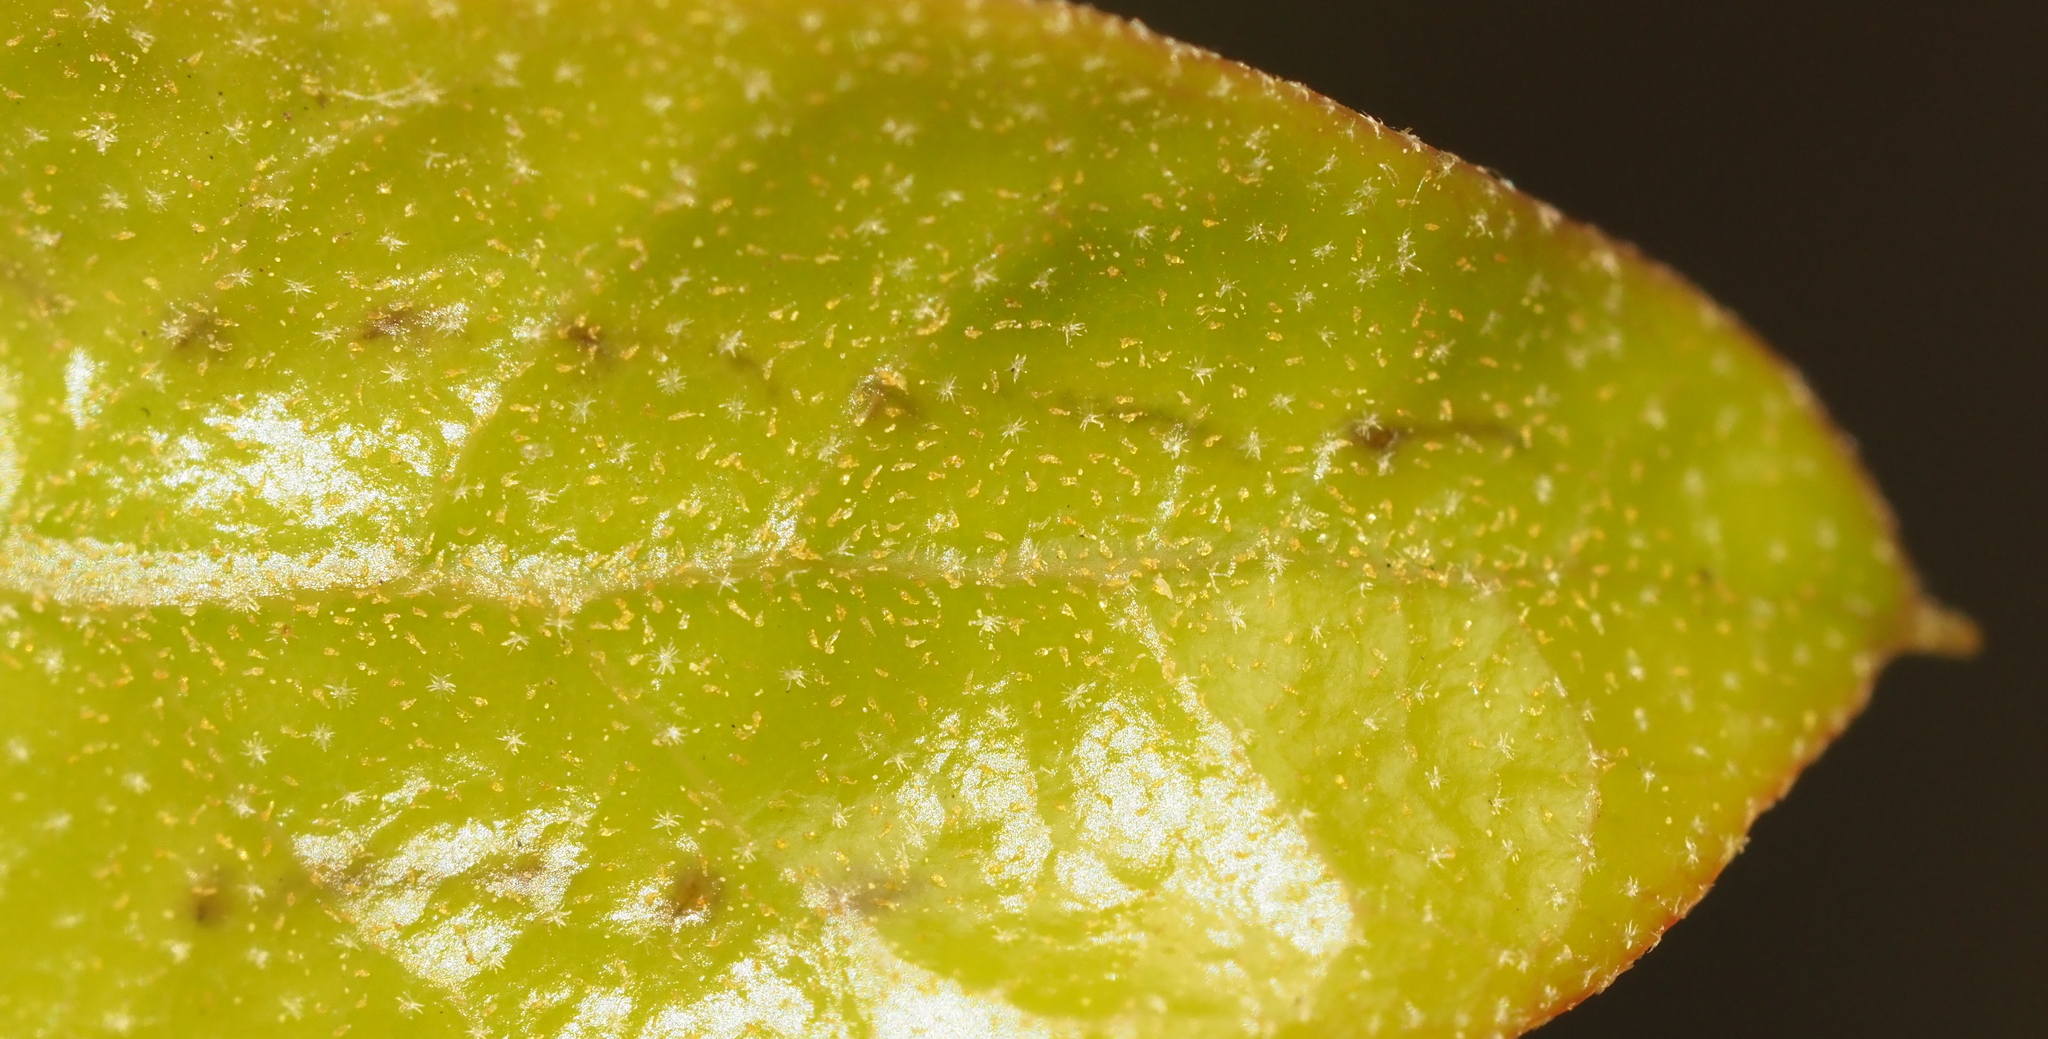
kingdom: Animalia
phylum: Arthropoda
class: Insecta
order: Hymenoptera
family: Cynipidae
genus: Belonocnema
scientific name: Belonocnema kinseyi
